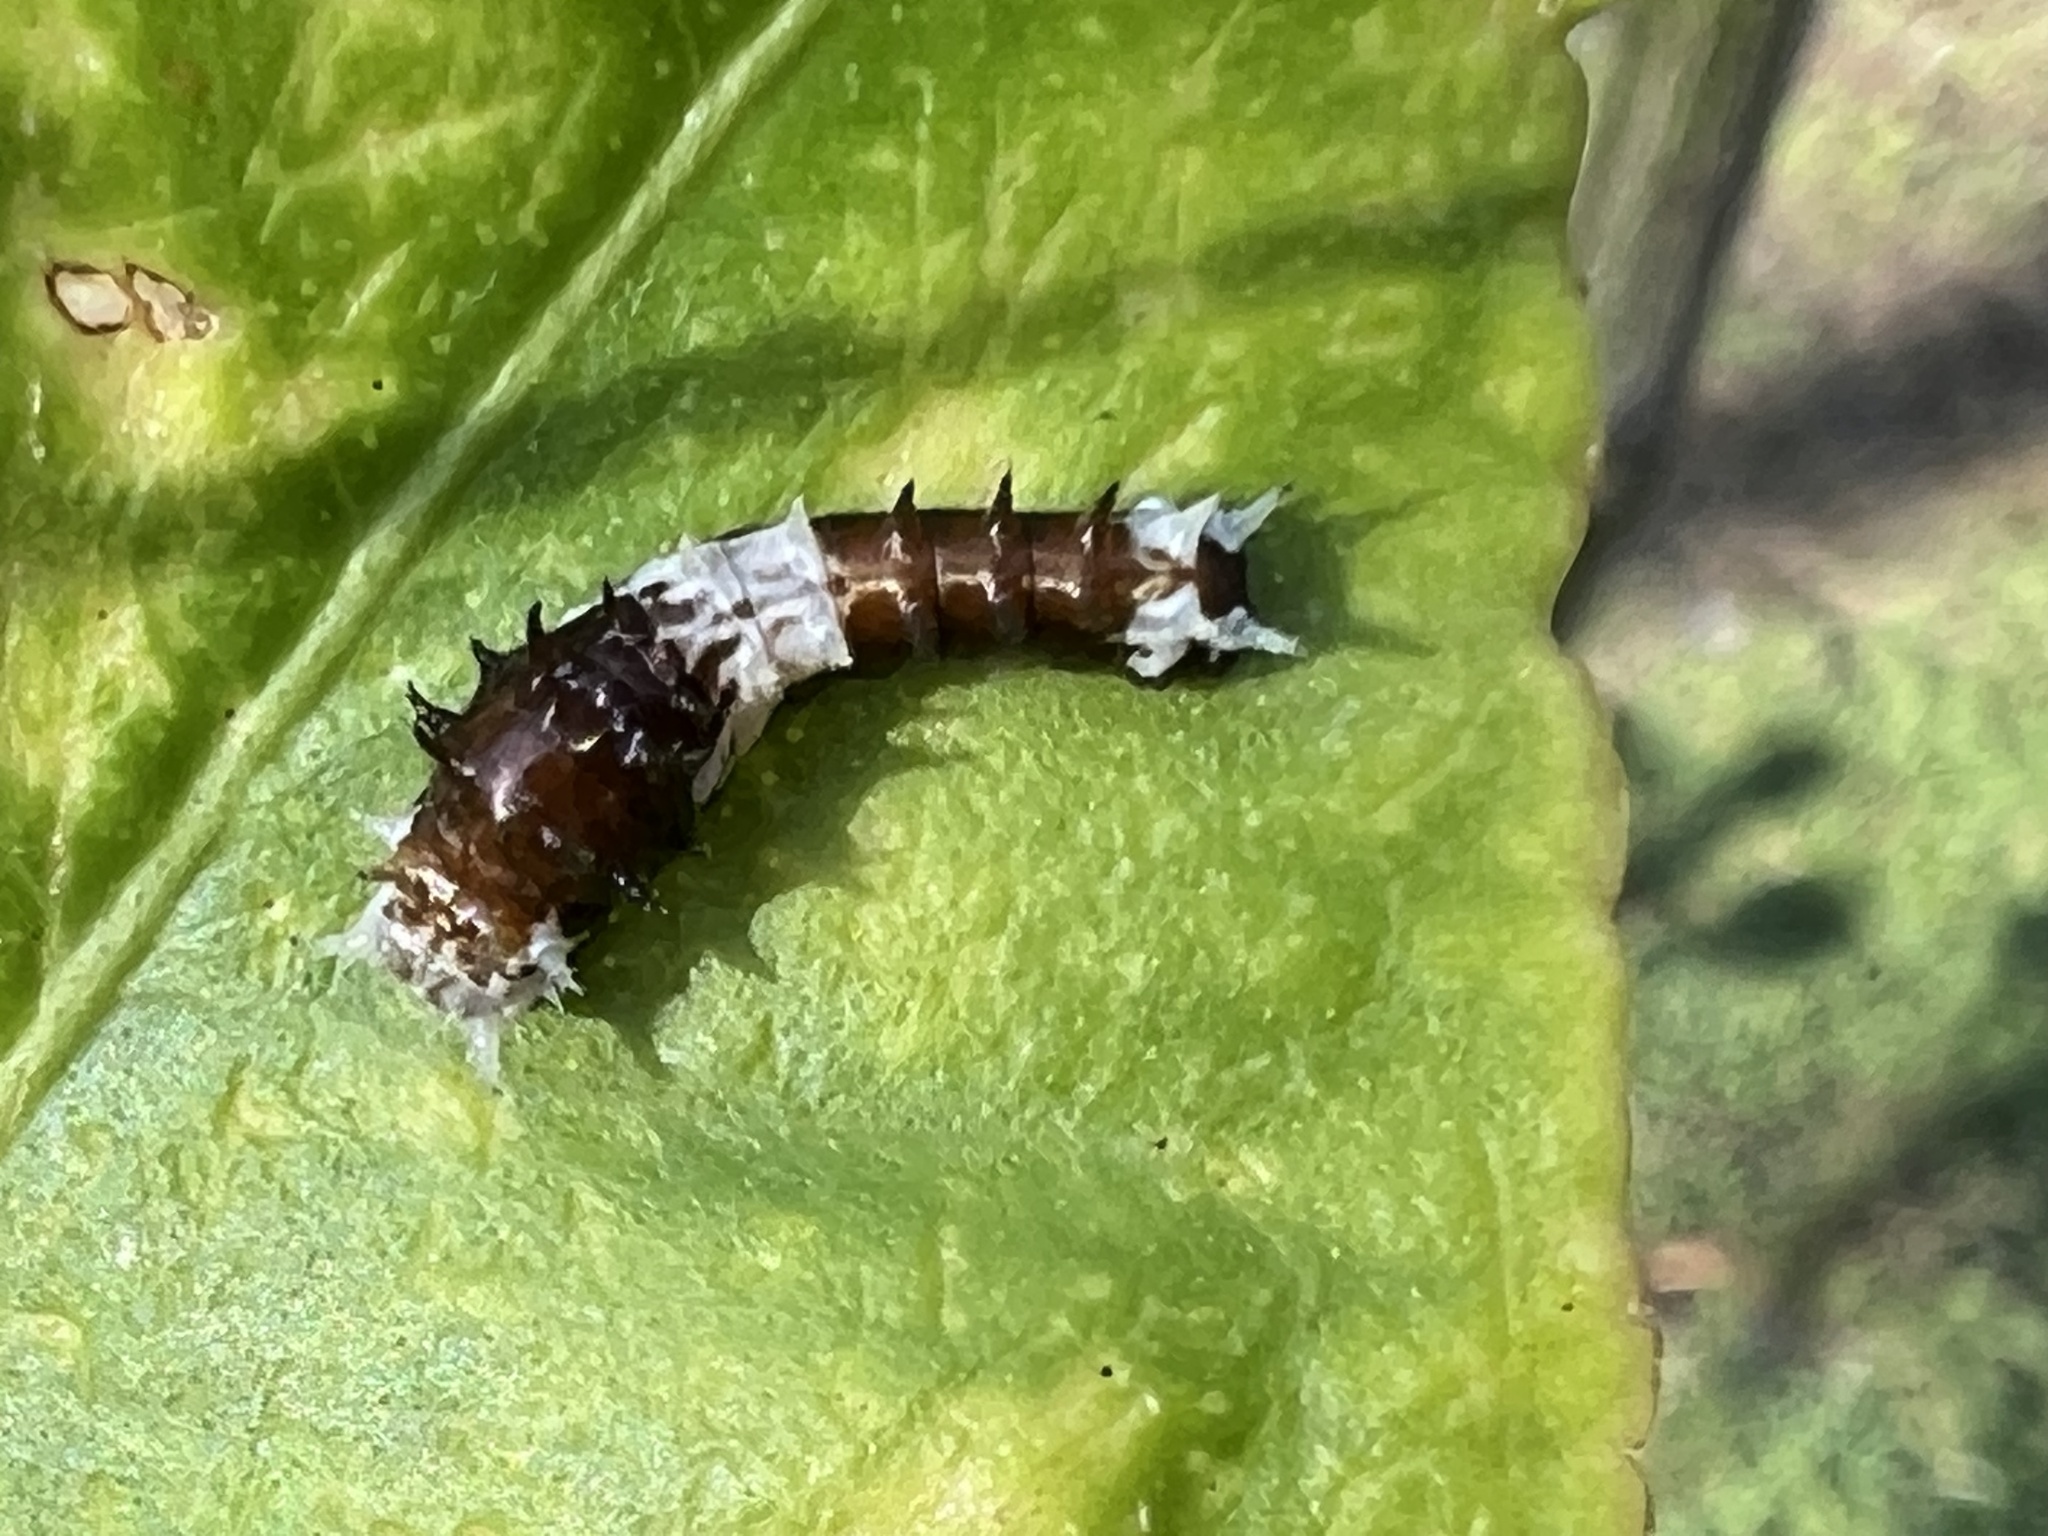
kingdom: Animalia
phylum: Arthropoda
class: Insecta
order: Lepidoptera
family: Papilionidae
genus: Papilio
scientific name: Papilio aegeus
